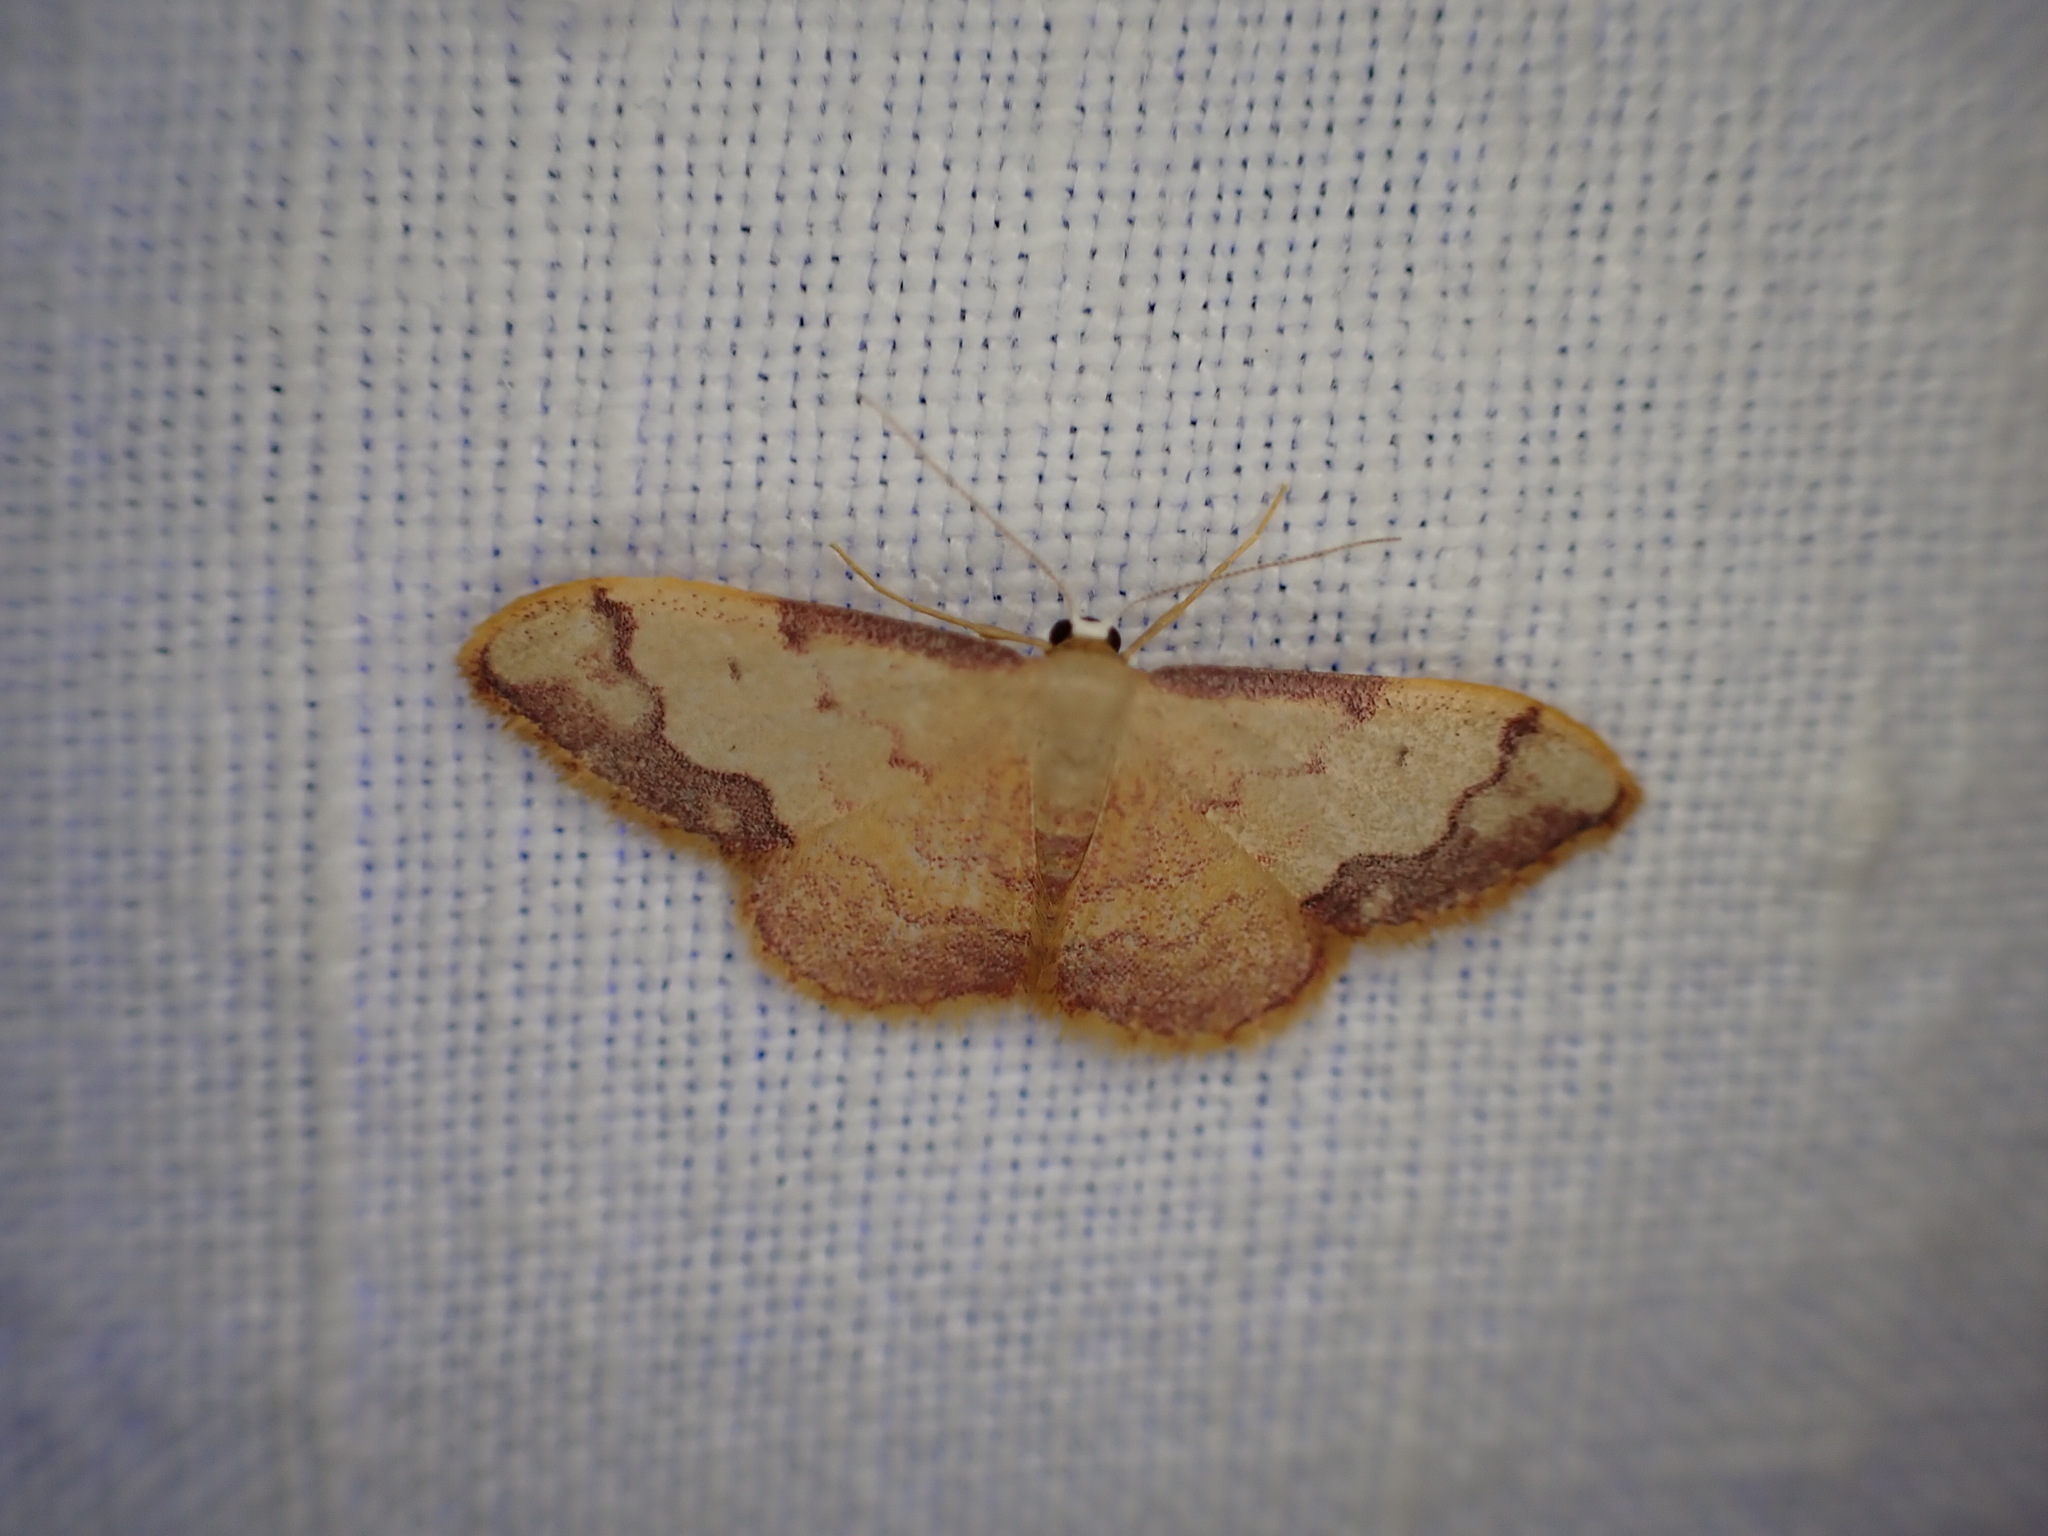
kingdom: Animalia
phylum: Arthropoda
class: Insecta
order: Lepidoptera
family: Geometridae
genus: Idaea
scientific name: Idaea ostrinaria
